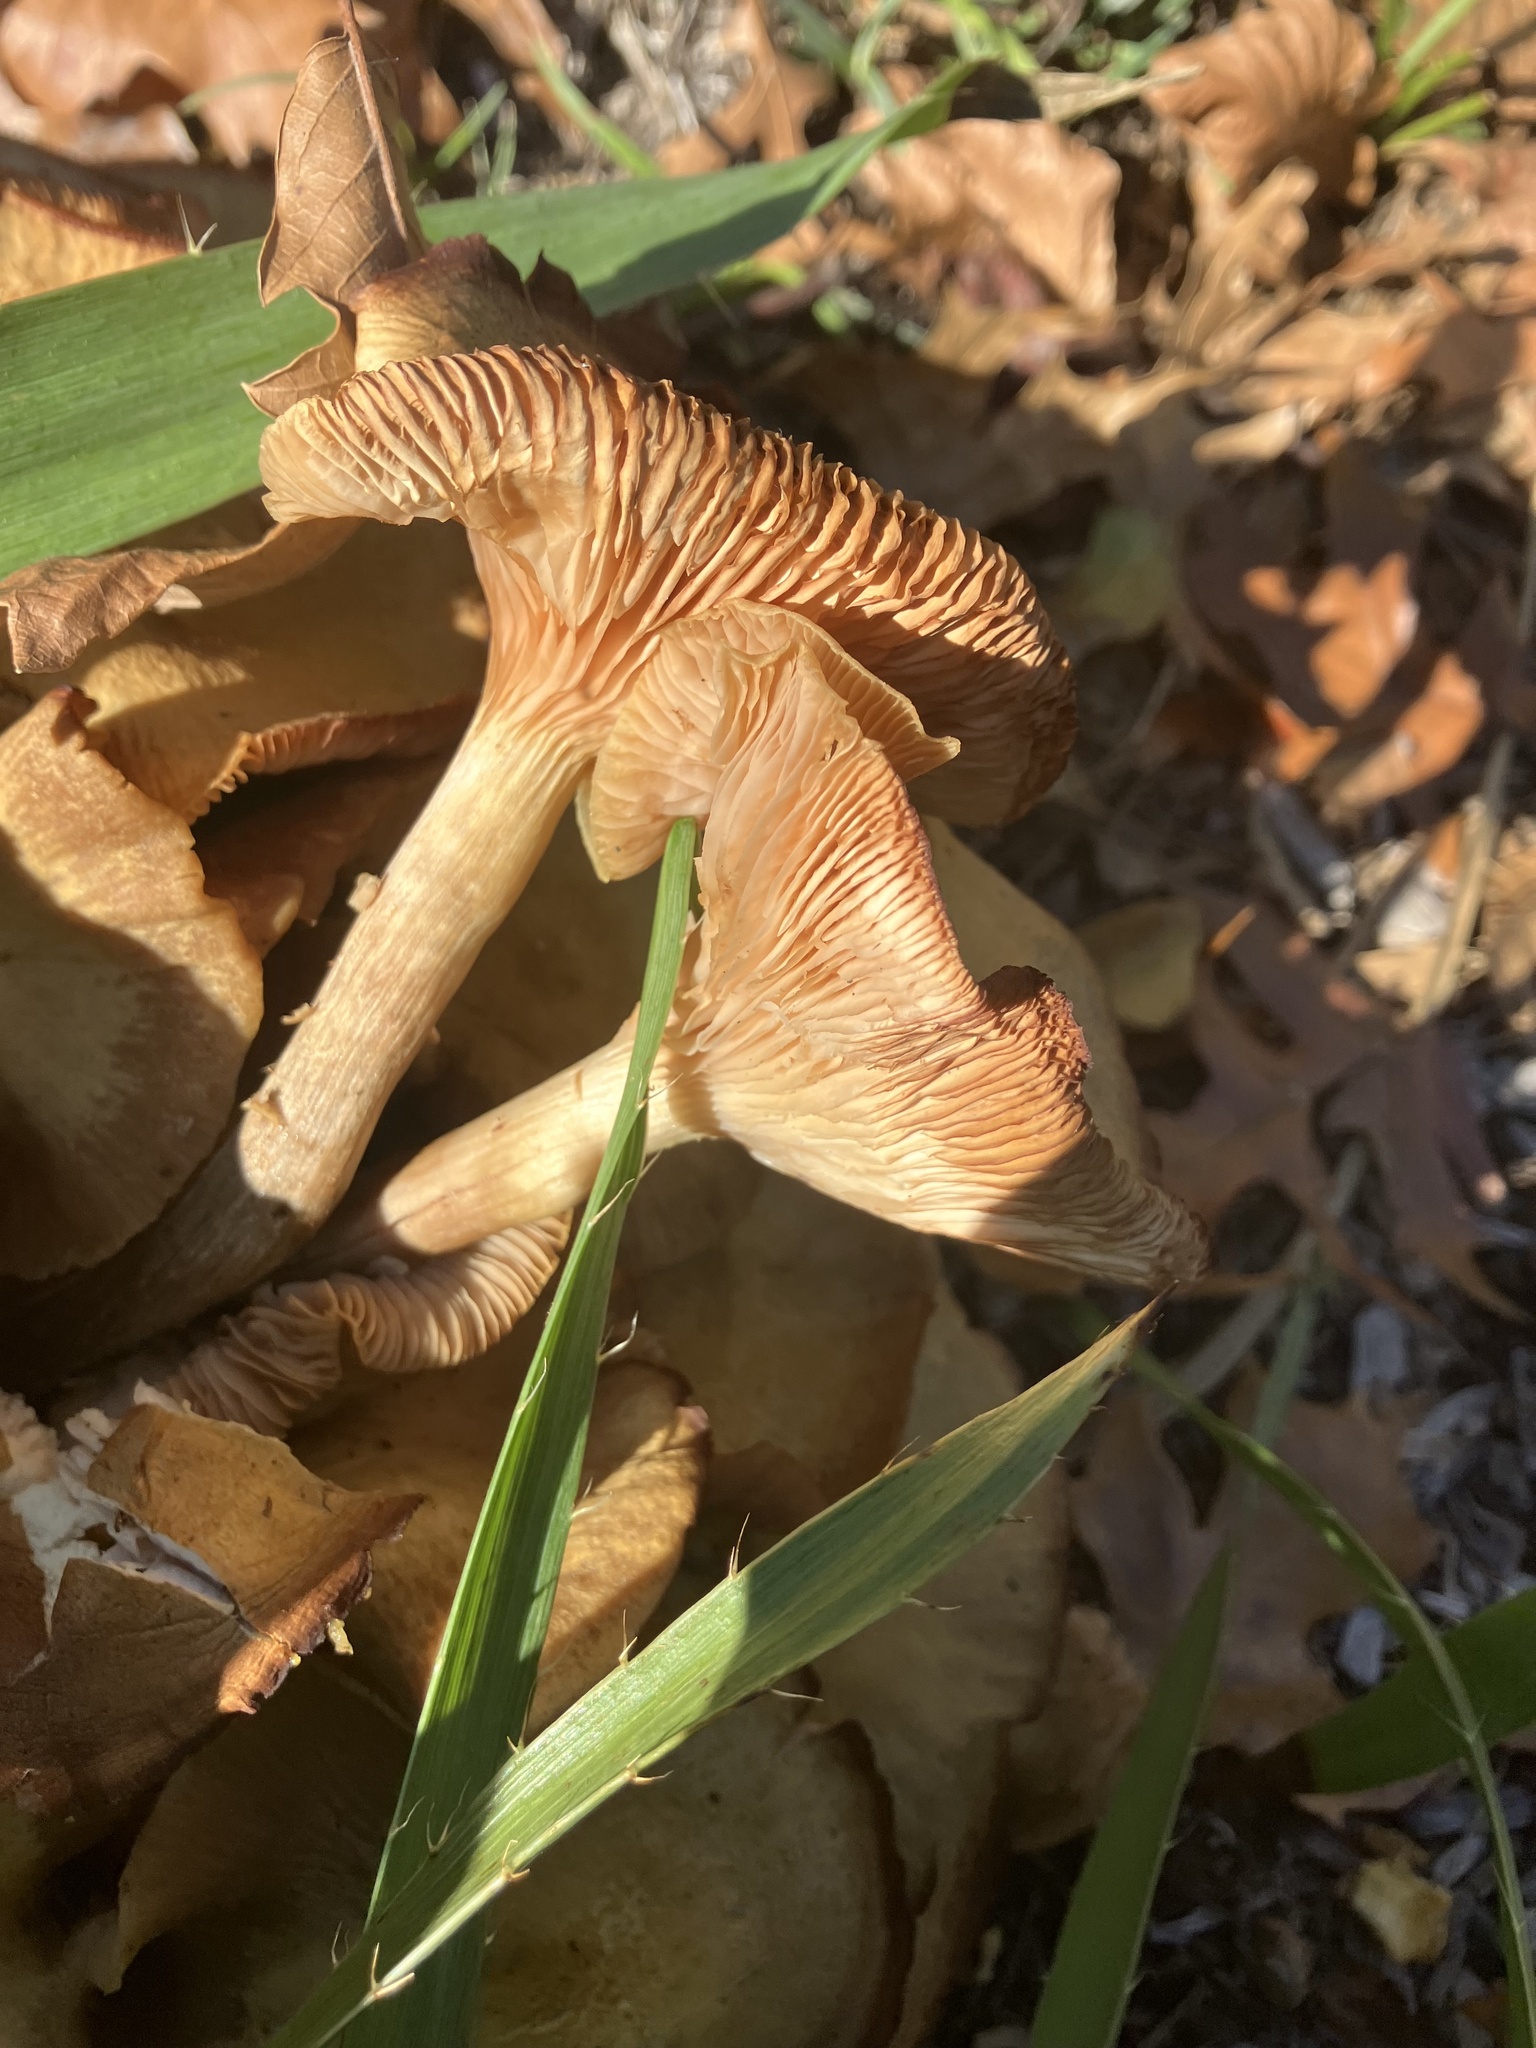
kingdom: Fungi
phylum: Basidiomycota
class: Agaricomycetes
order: Agaricales
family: Physalacriaceae
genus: Desarmillaria
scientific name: Desarmillaria caespitosa
